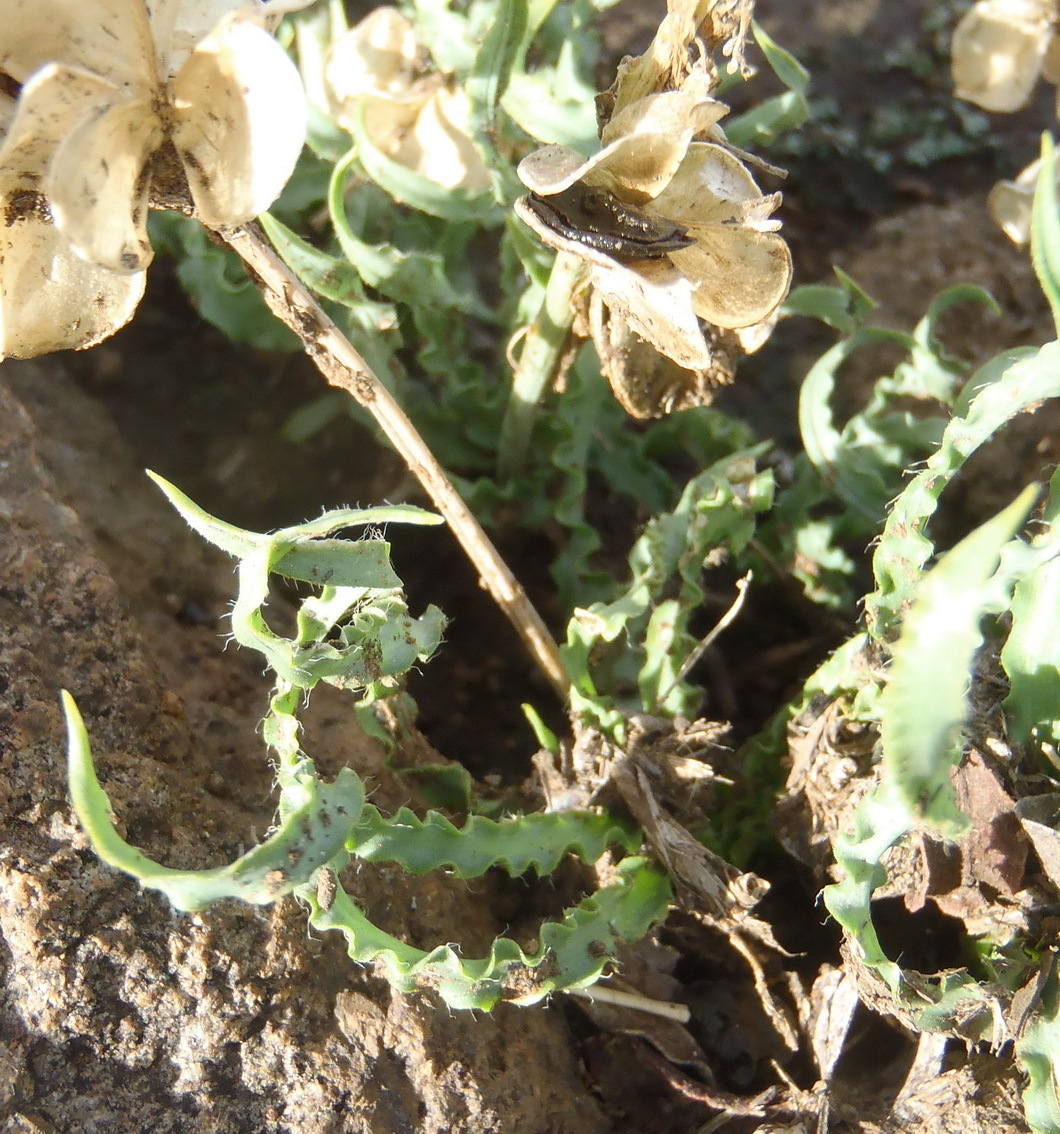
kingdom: Plantae
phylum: Tracheophyta
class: Liliopsida
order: Asparagales
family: Asparagaceae
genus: Dipcadi
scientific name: Dipcadi ciliare
